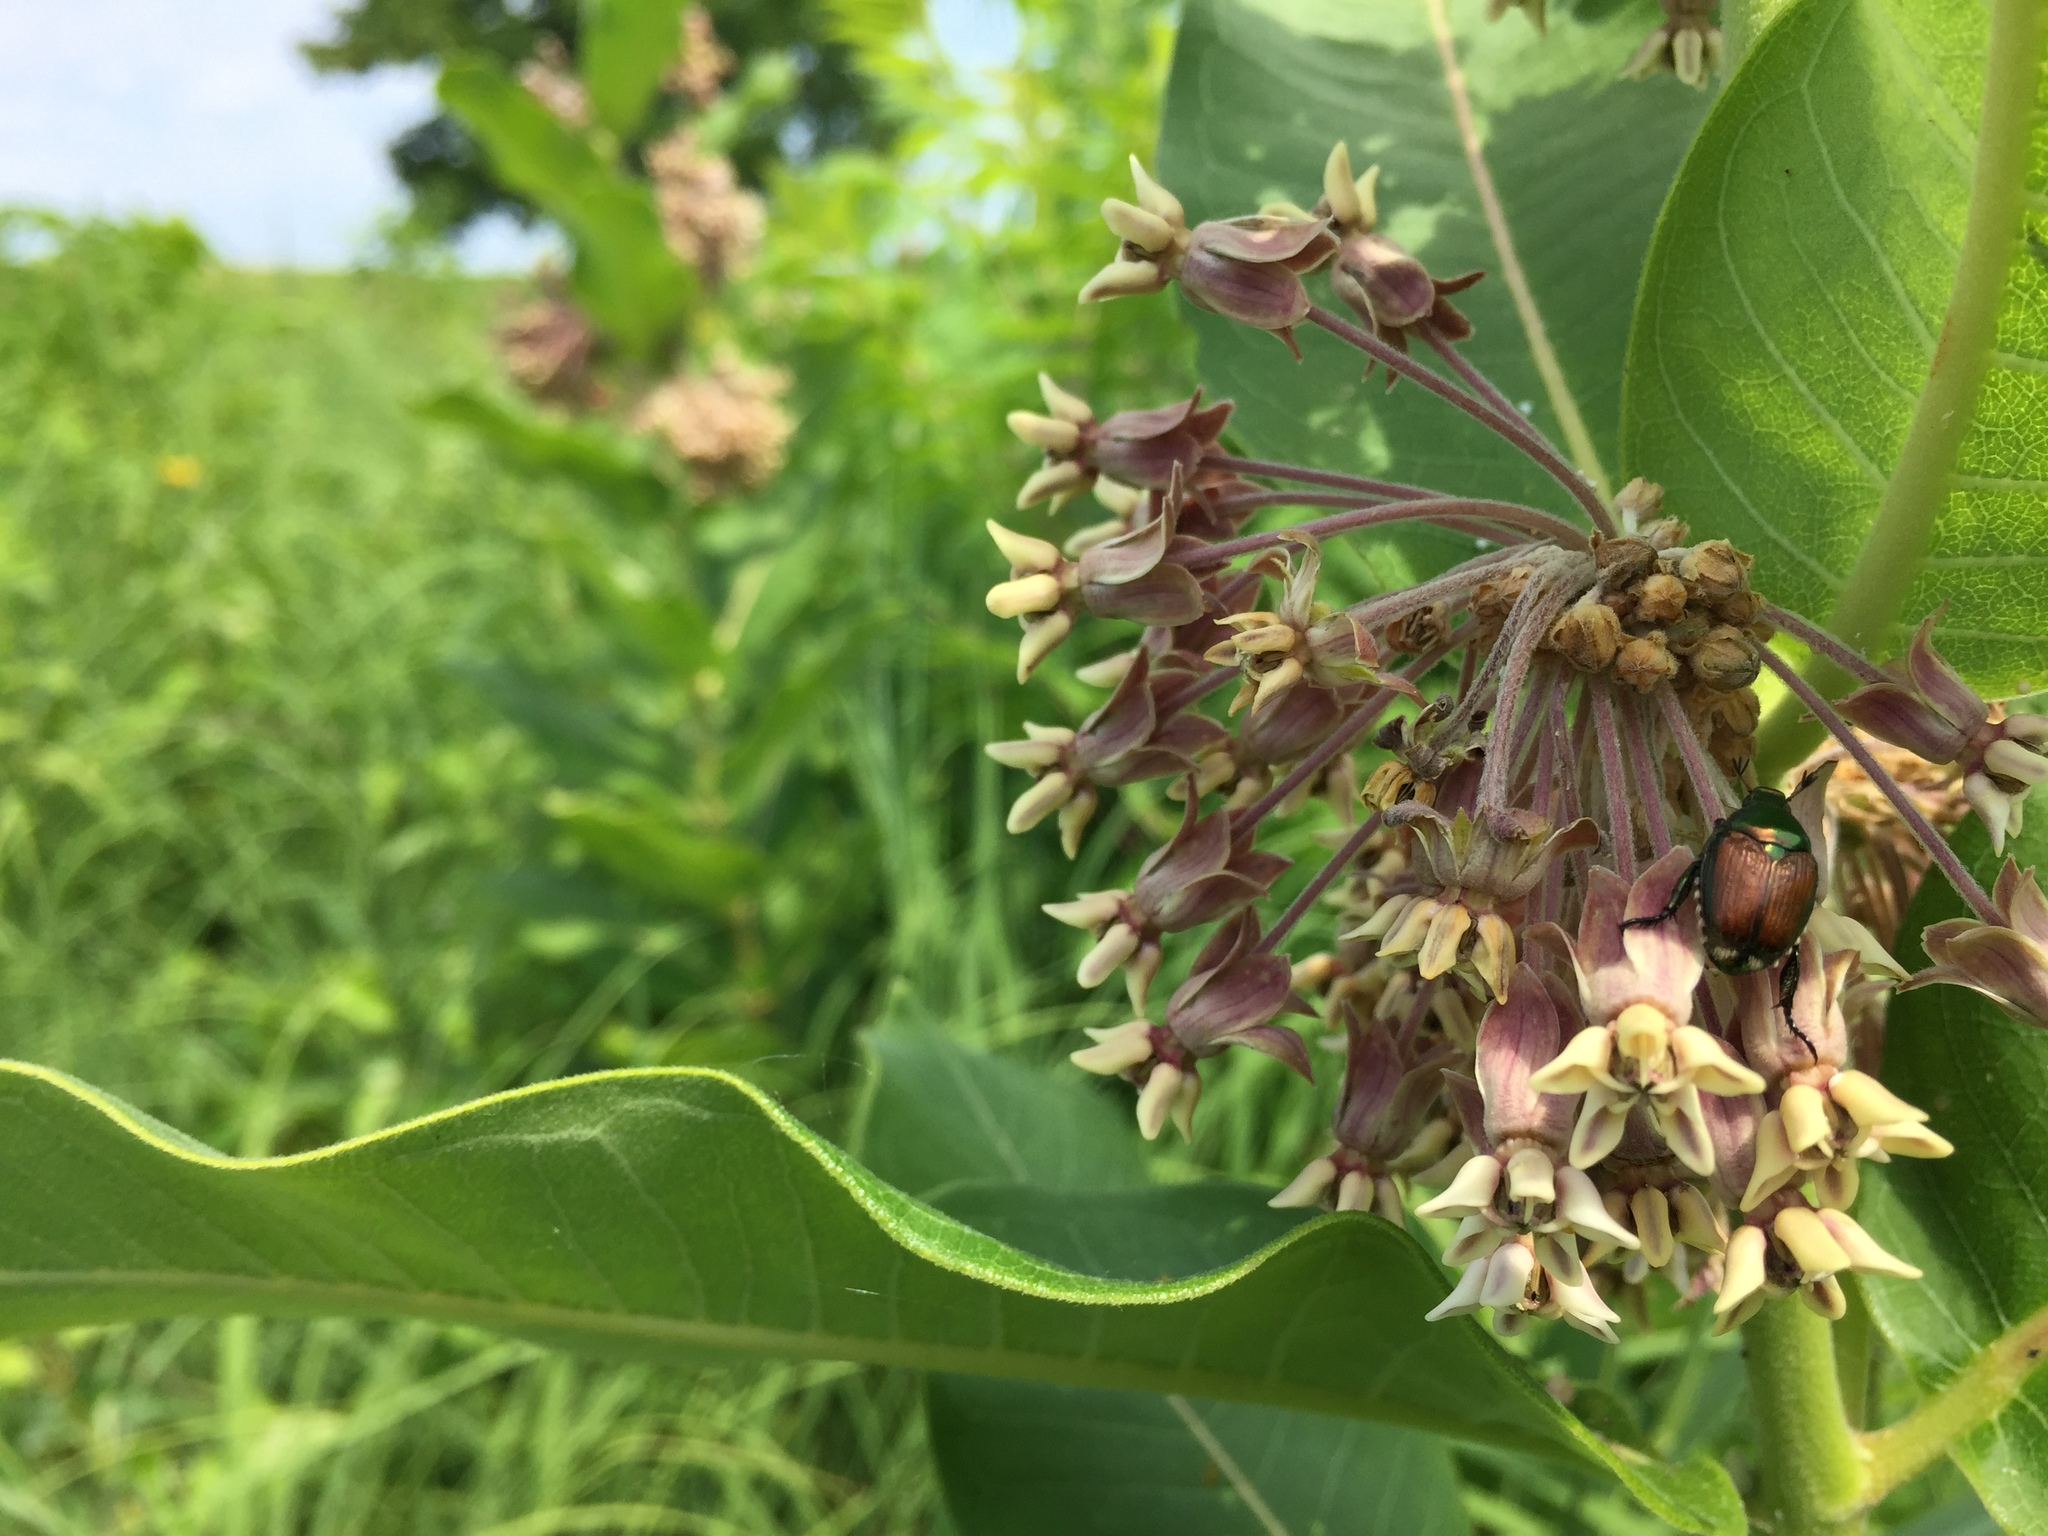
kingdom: Animalia
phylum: Arthropoda
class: Insecta
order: Coleoptera
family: Scarabaeidae
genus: Popillia
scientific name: Popillia japonica
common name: Japanese beetle
